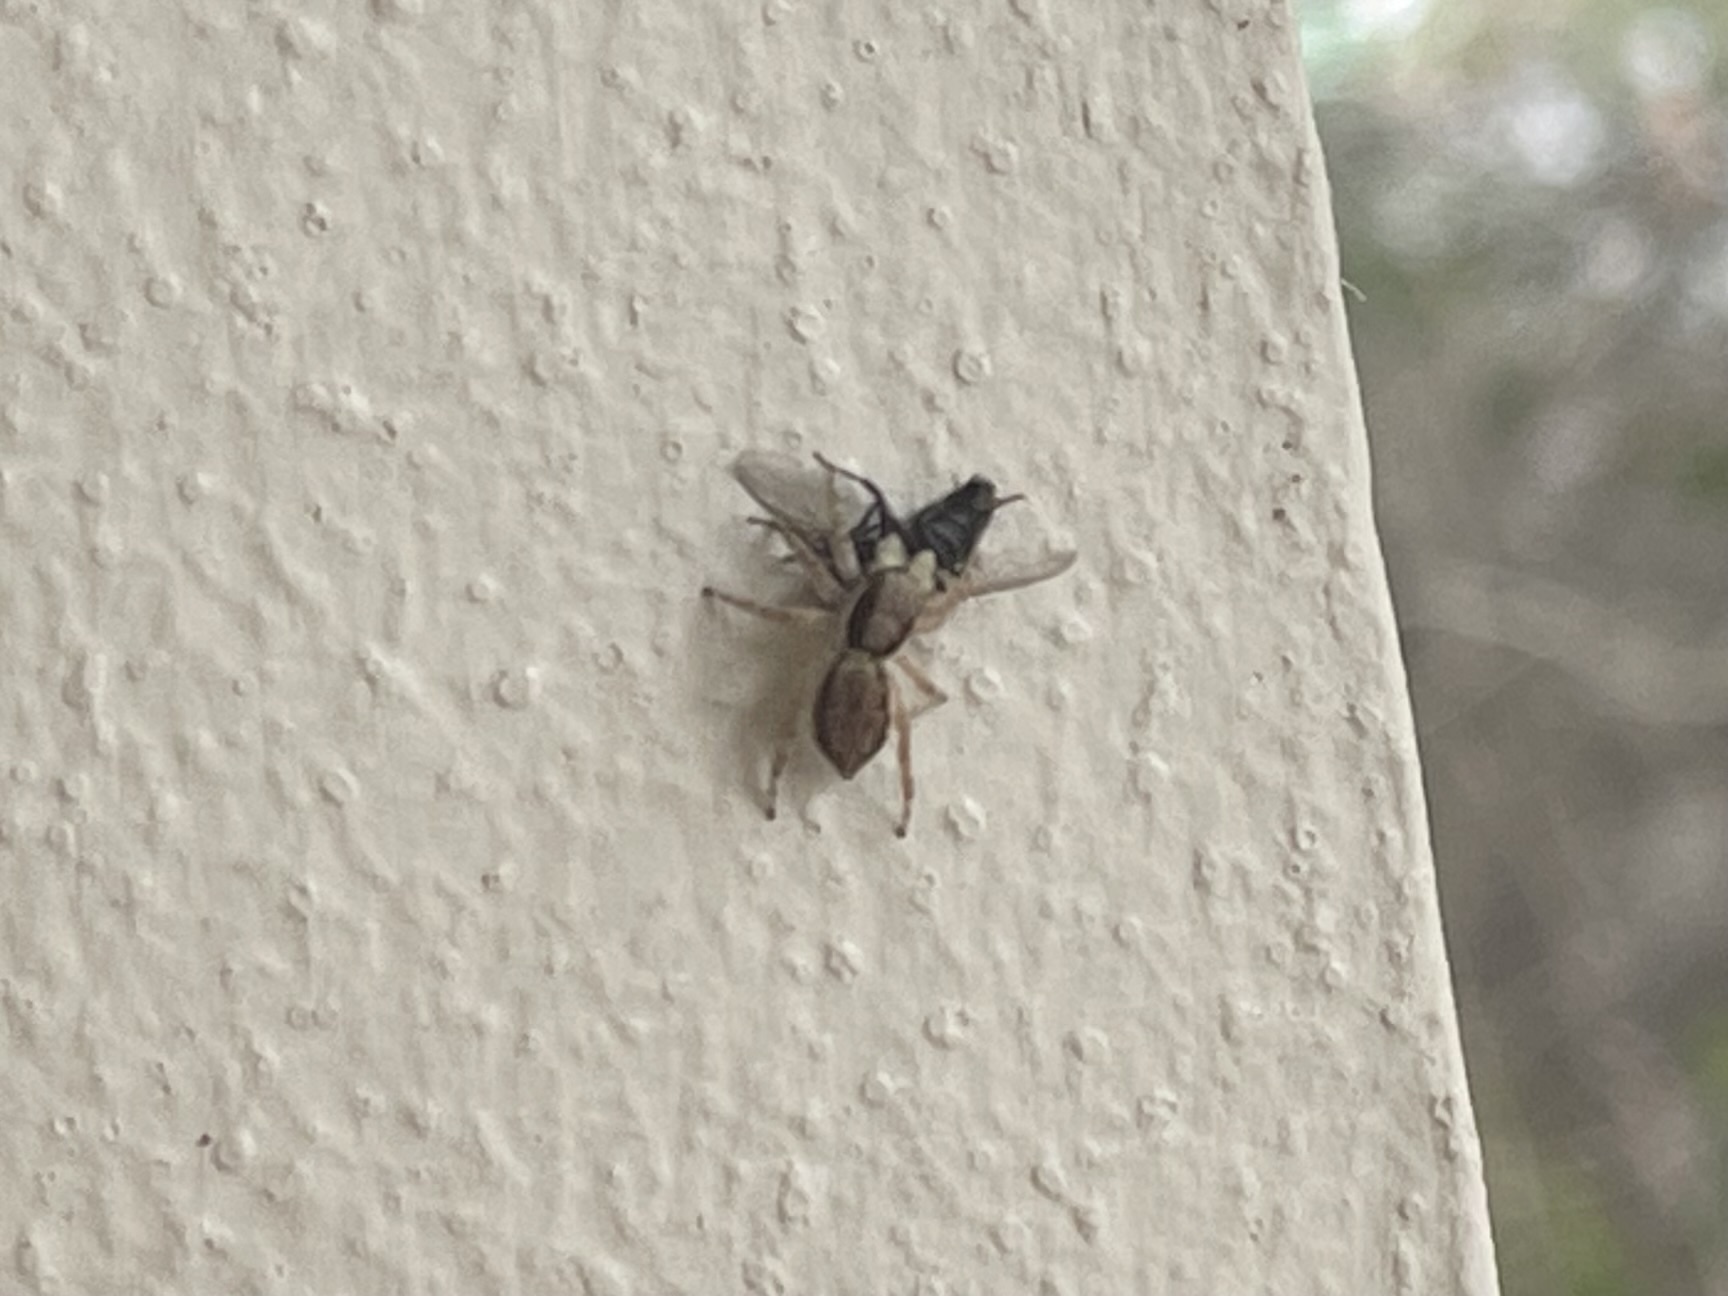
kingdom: Animalia
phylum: Arthropoda
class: Arachnida
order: Araneae
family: Salticidae
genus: Menemerus
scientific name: Menemerus bivittatus
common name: Gray wall jumper
